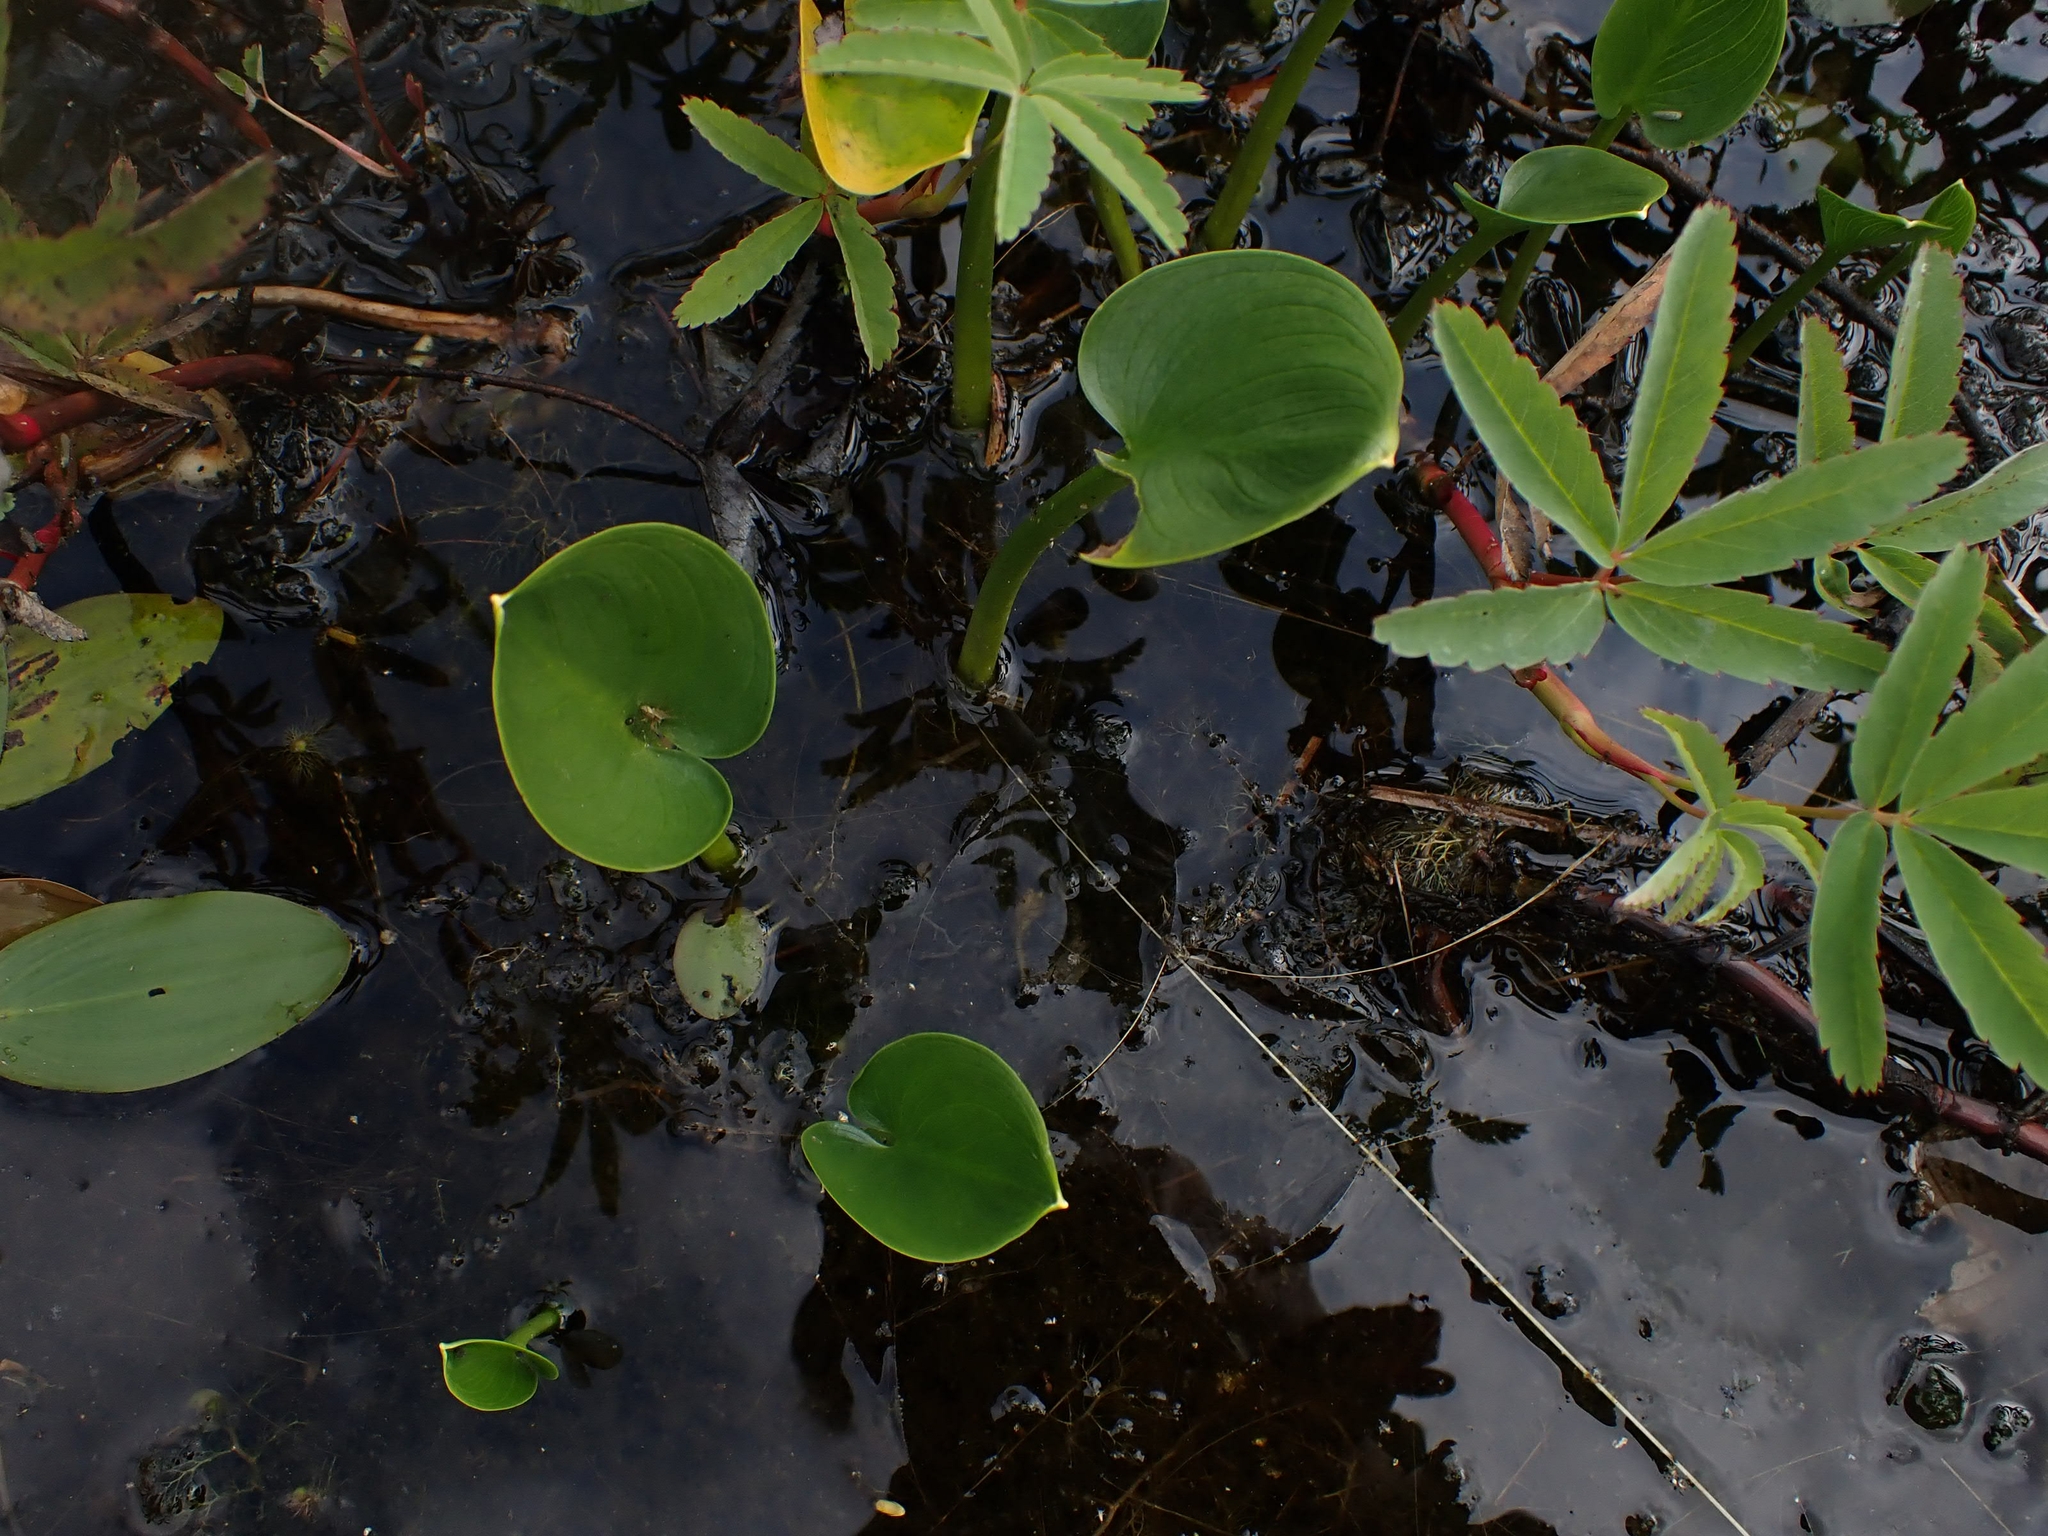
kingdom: Plantae
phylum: Tracheophyta
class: Liliopsida
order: Alismatales
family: Araceae
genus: Calla
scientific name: Calla palustris
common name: Bog arum
